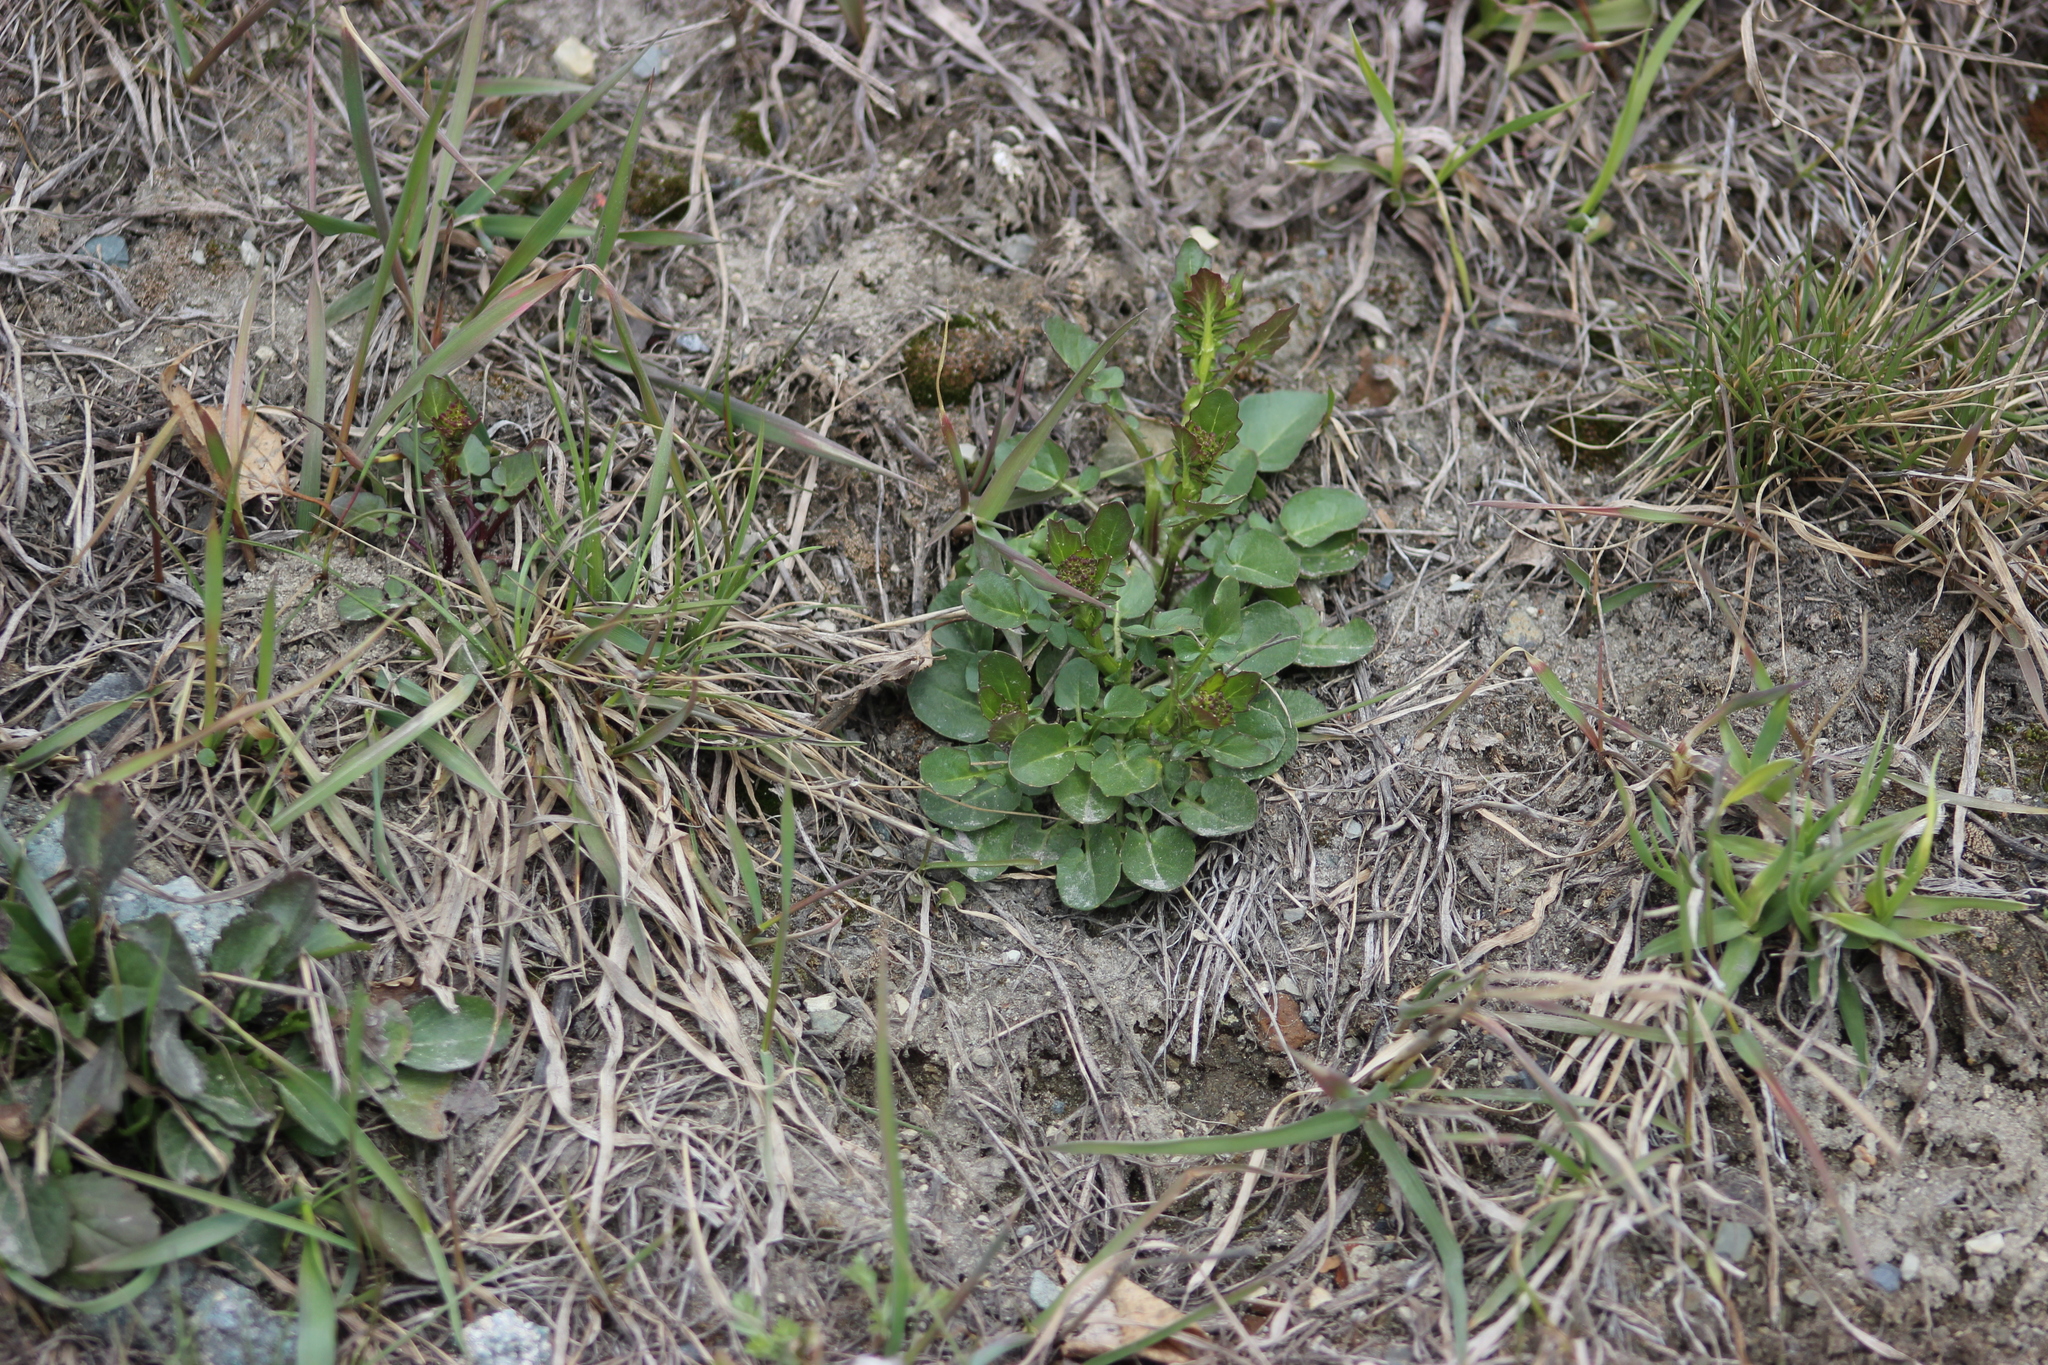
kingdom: Plantae
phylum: Tracheophyta
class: Magnoliopsida
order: Brassicales
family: Brassicaceae
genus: Barbarea
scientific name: Barbarea vulgaris
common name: Cressy-greens
